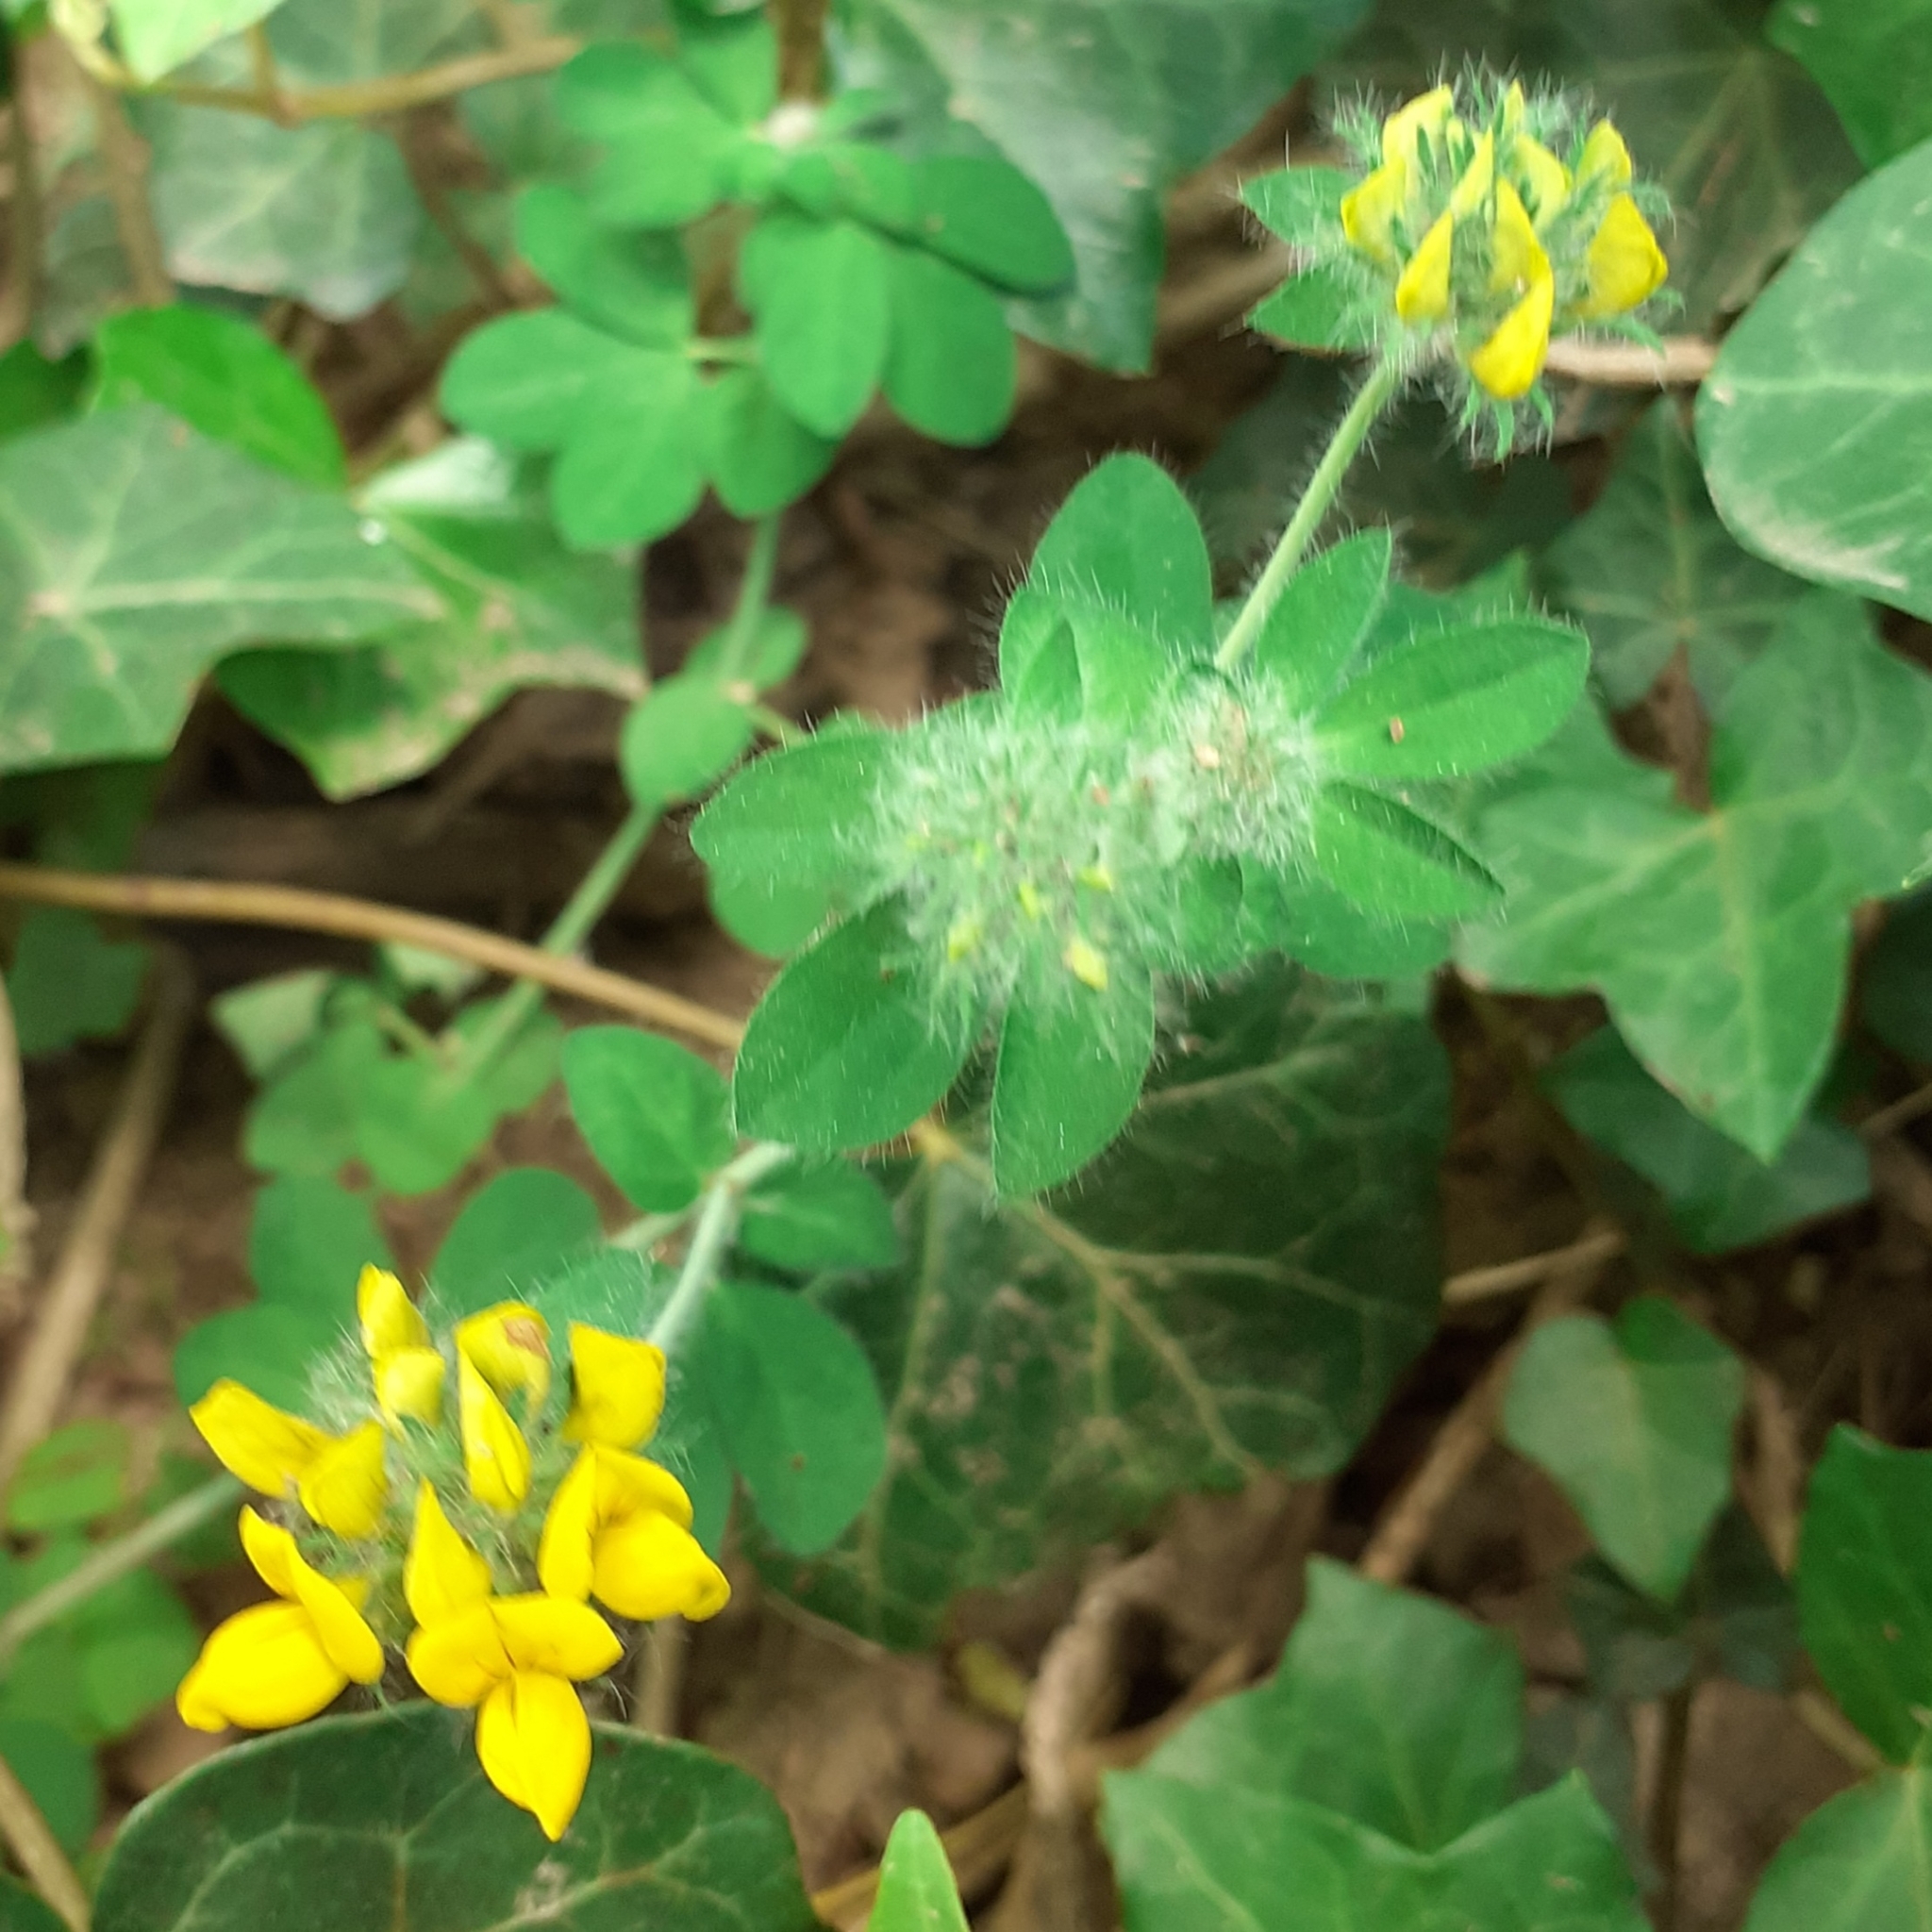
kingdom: Plantae
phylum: Tracheophyta
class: Magnoliopsida
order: Fabales
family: Fabaceae
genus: Lotus
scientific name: Lotus pedunculatus
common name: Greater birdsfoot-trefoil
